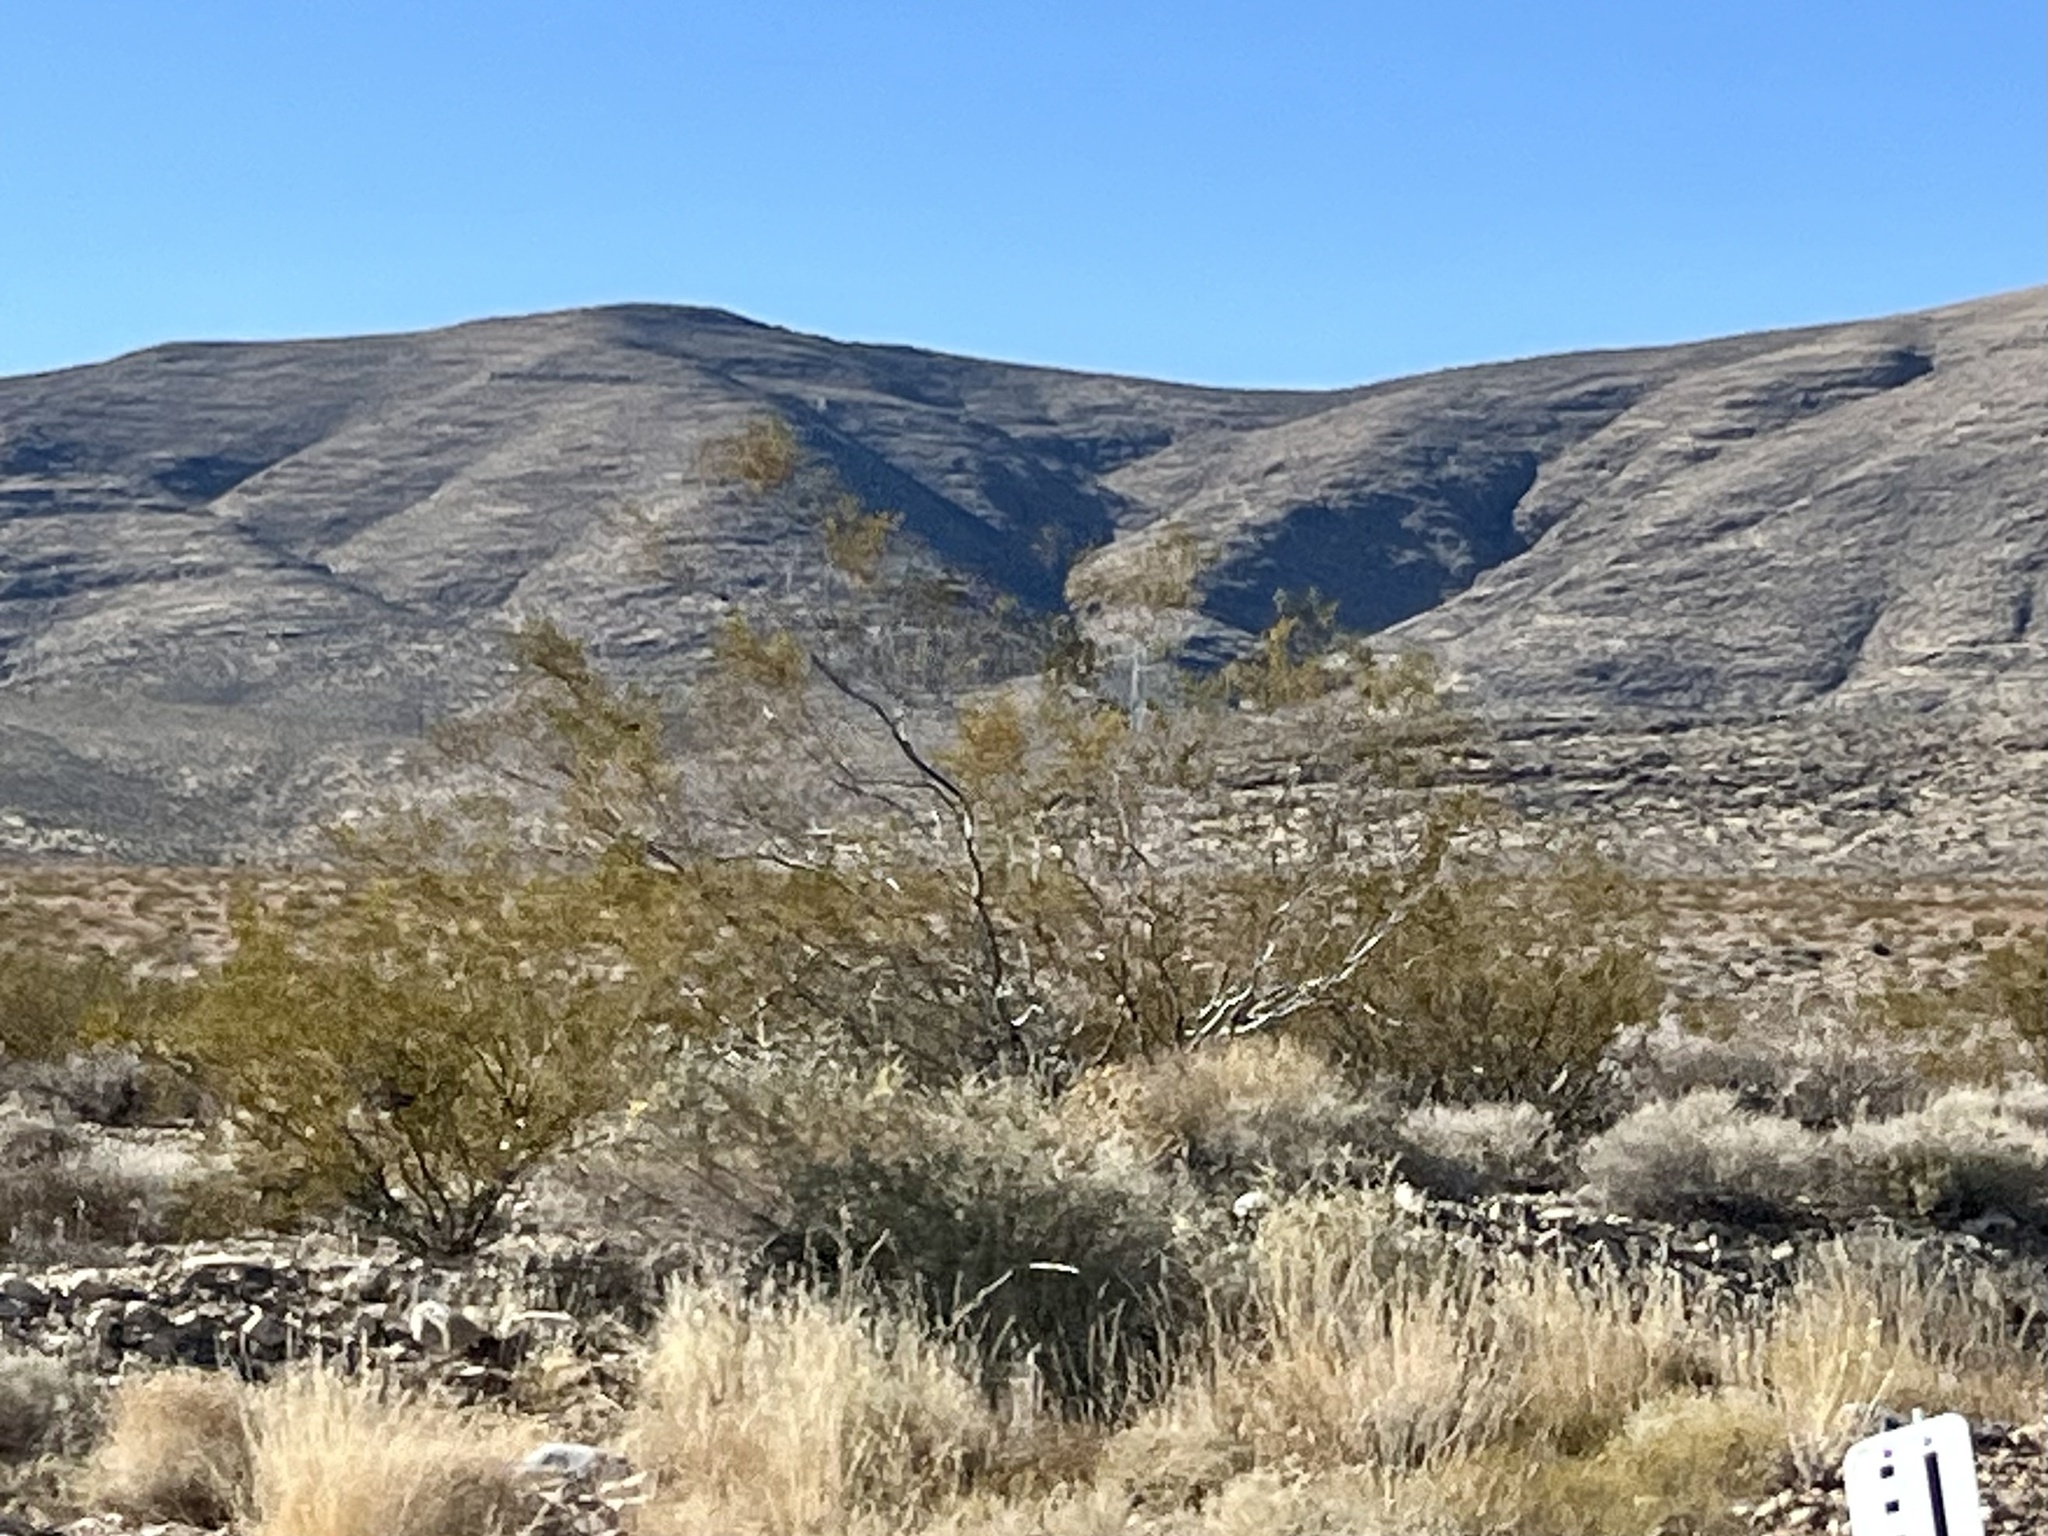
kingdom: Plantae
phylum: Tracheophyta
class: Magnoliopsida
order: Zygophyllales
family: Zygophyllaceae
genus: Larrea
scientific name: Larrea tridentata
